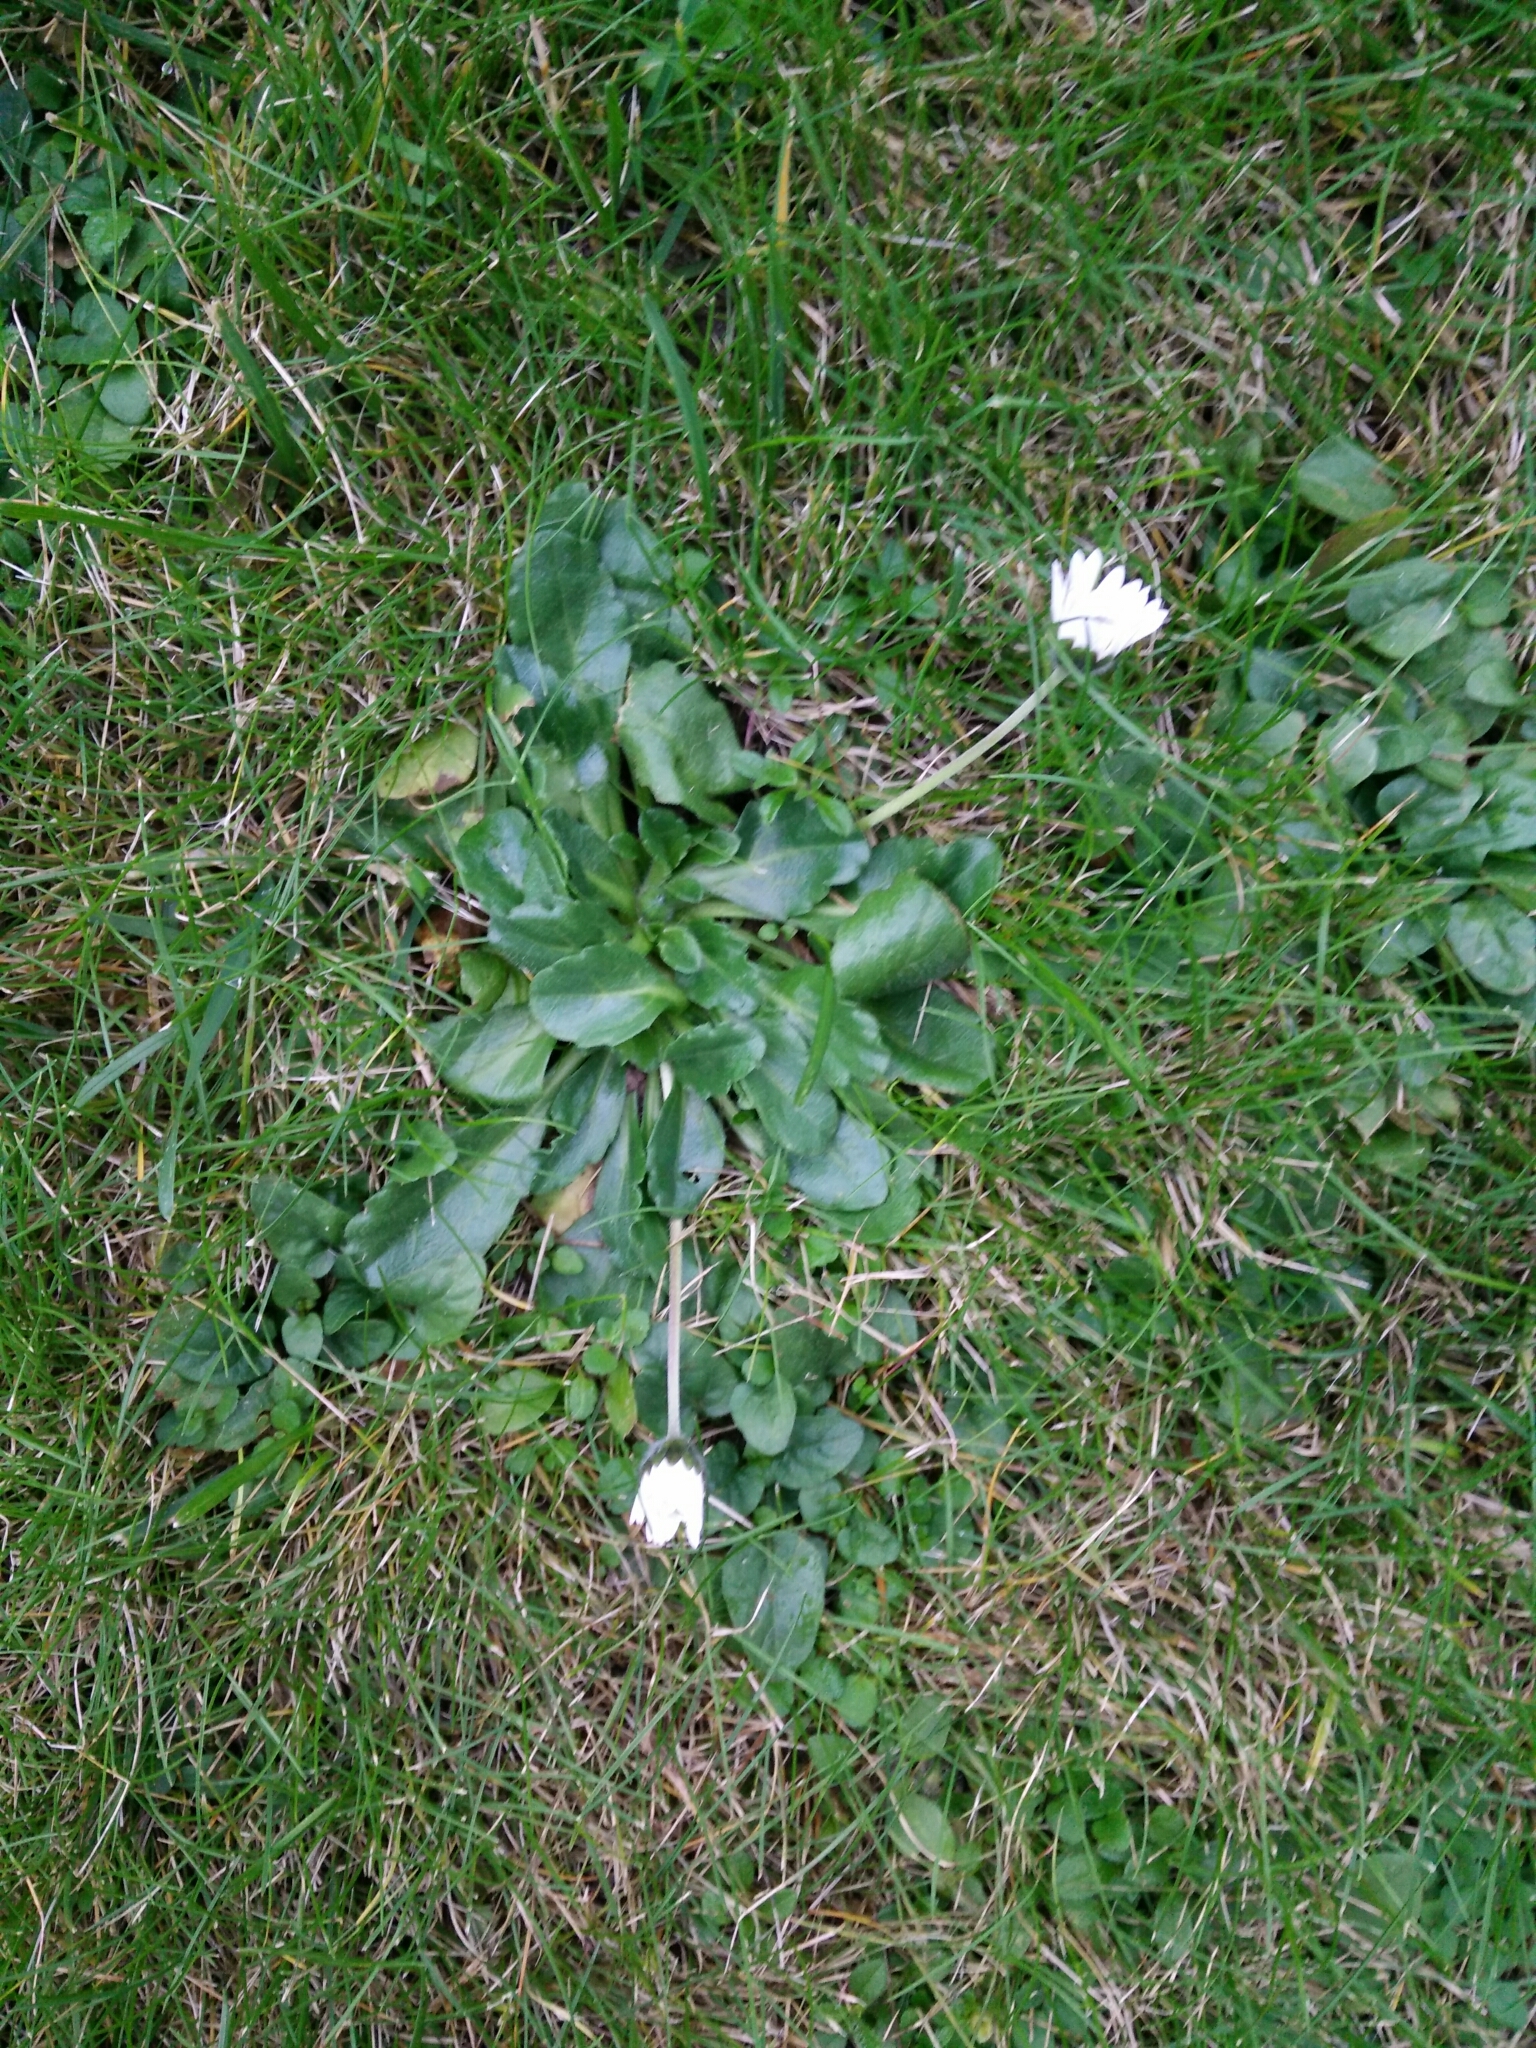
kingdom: Plantae
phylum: Tracheophyta
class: Magnoliopsida
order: Asterales
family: Asteraceae
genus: Bellis
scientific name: Bellis perennis
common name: Lawndaisy
